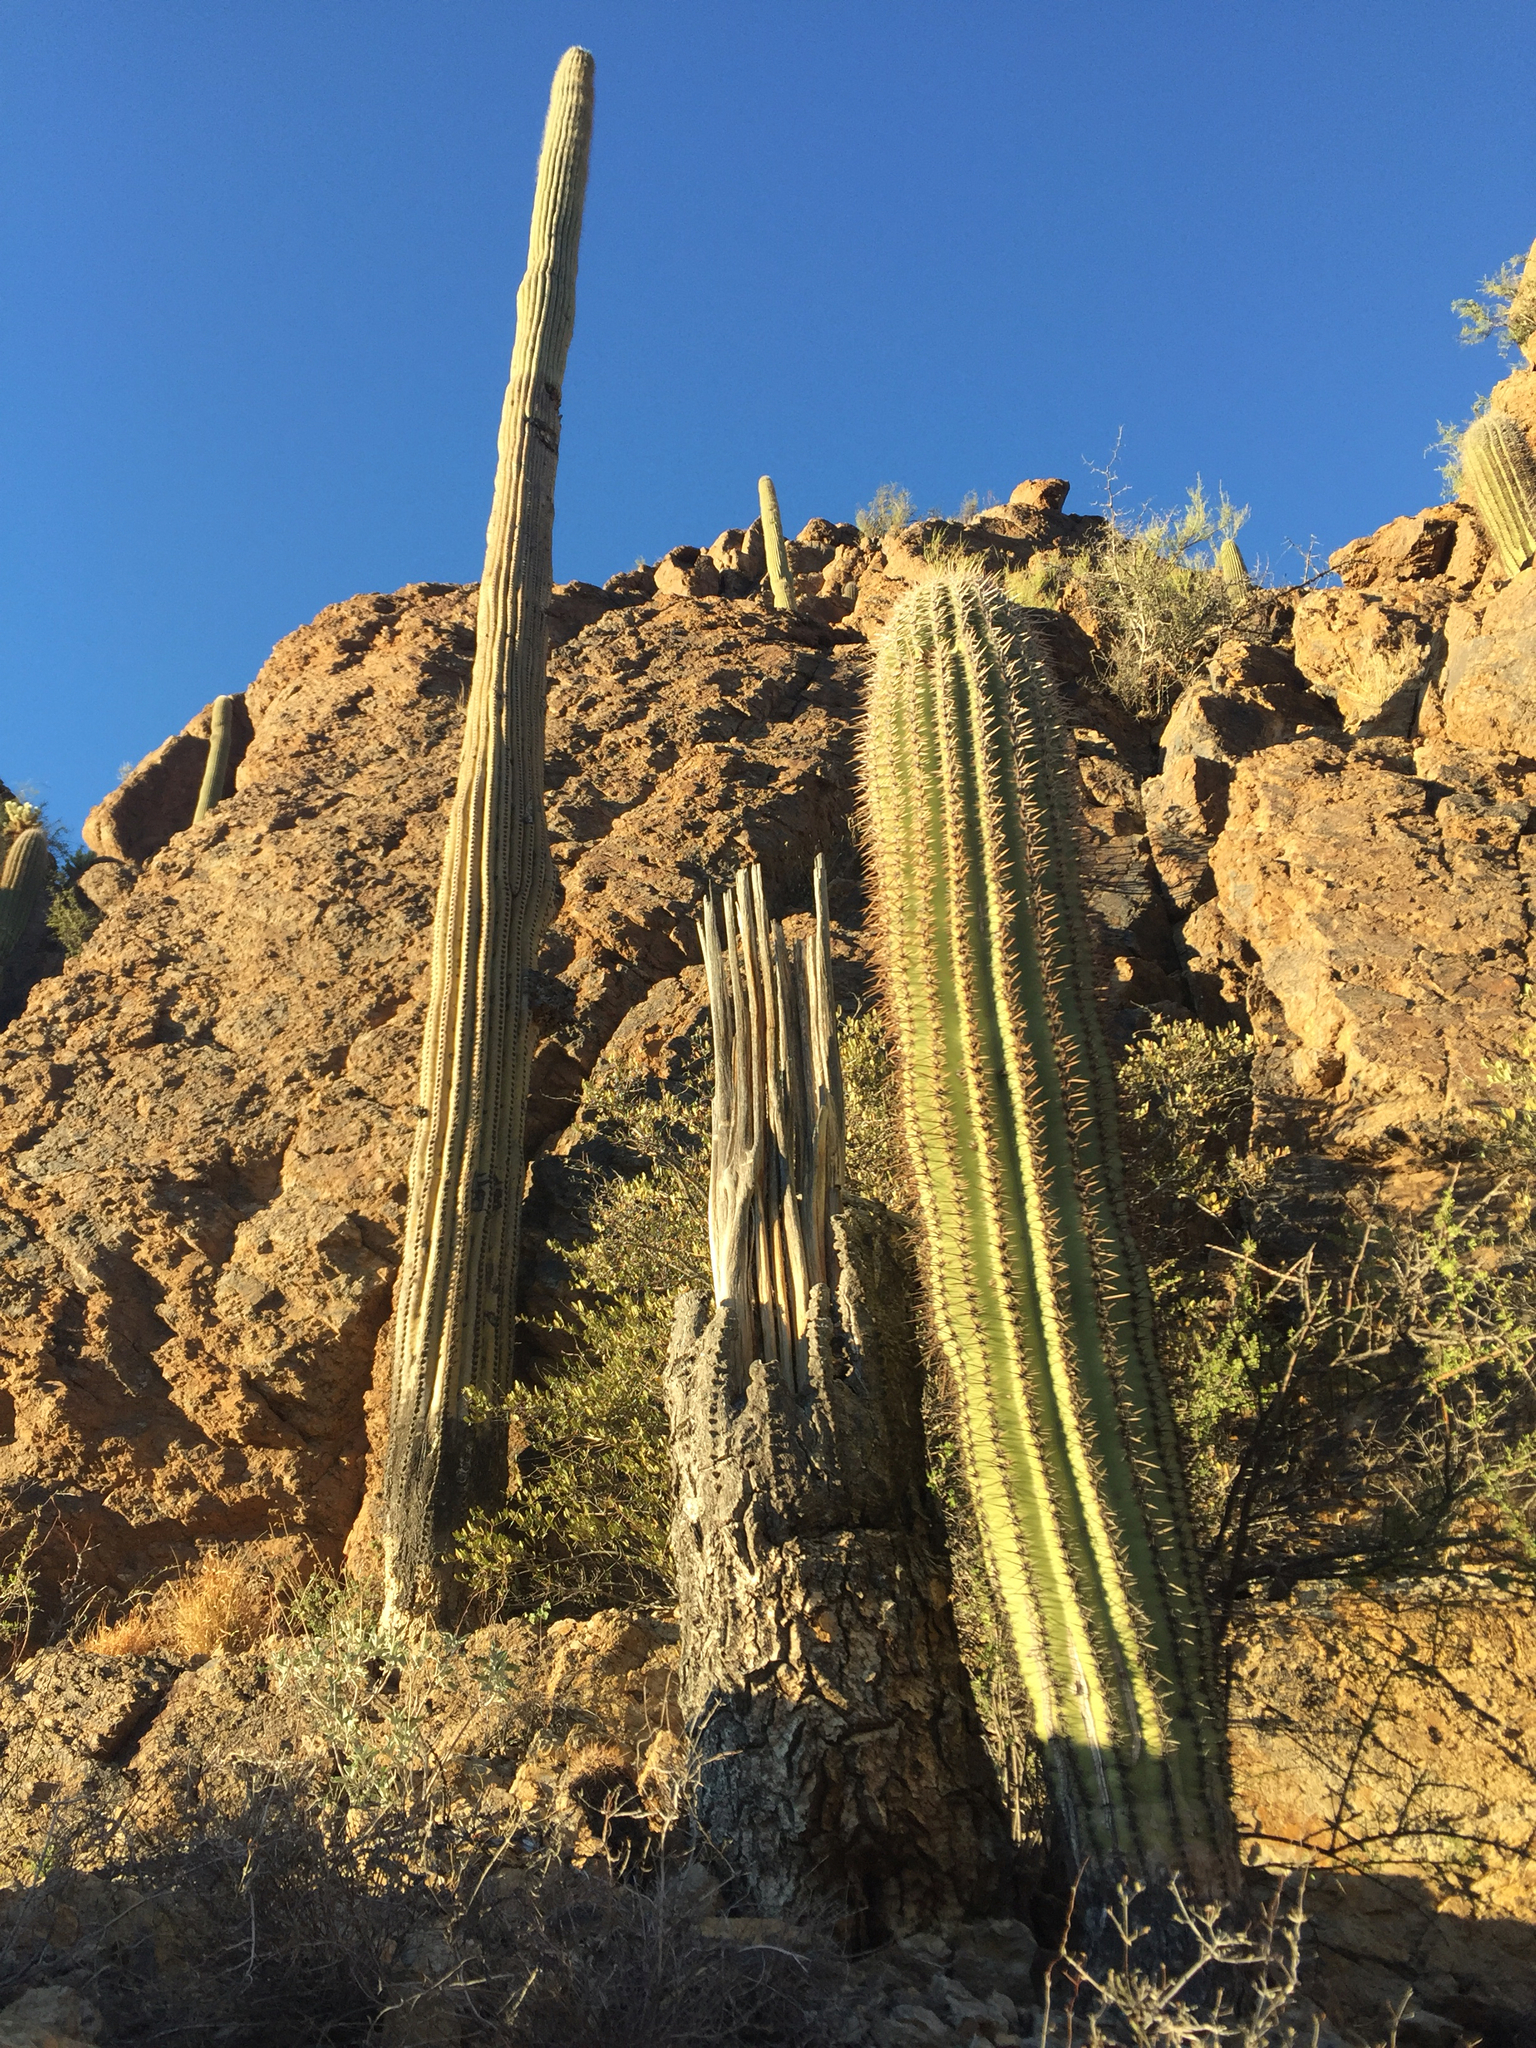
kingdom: Plantae
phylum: Tracheophyta
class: Magnoliopsida
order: Caryophyllales
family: Cactaceae
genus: Carnegiea
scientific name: Carnegiea gigantea
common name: Saguaro
